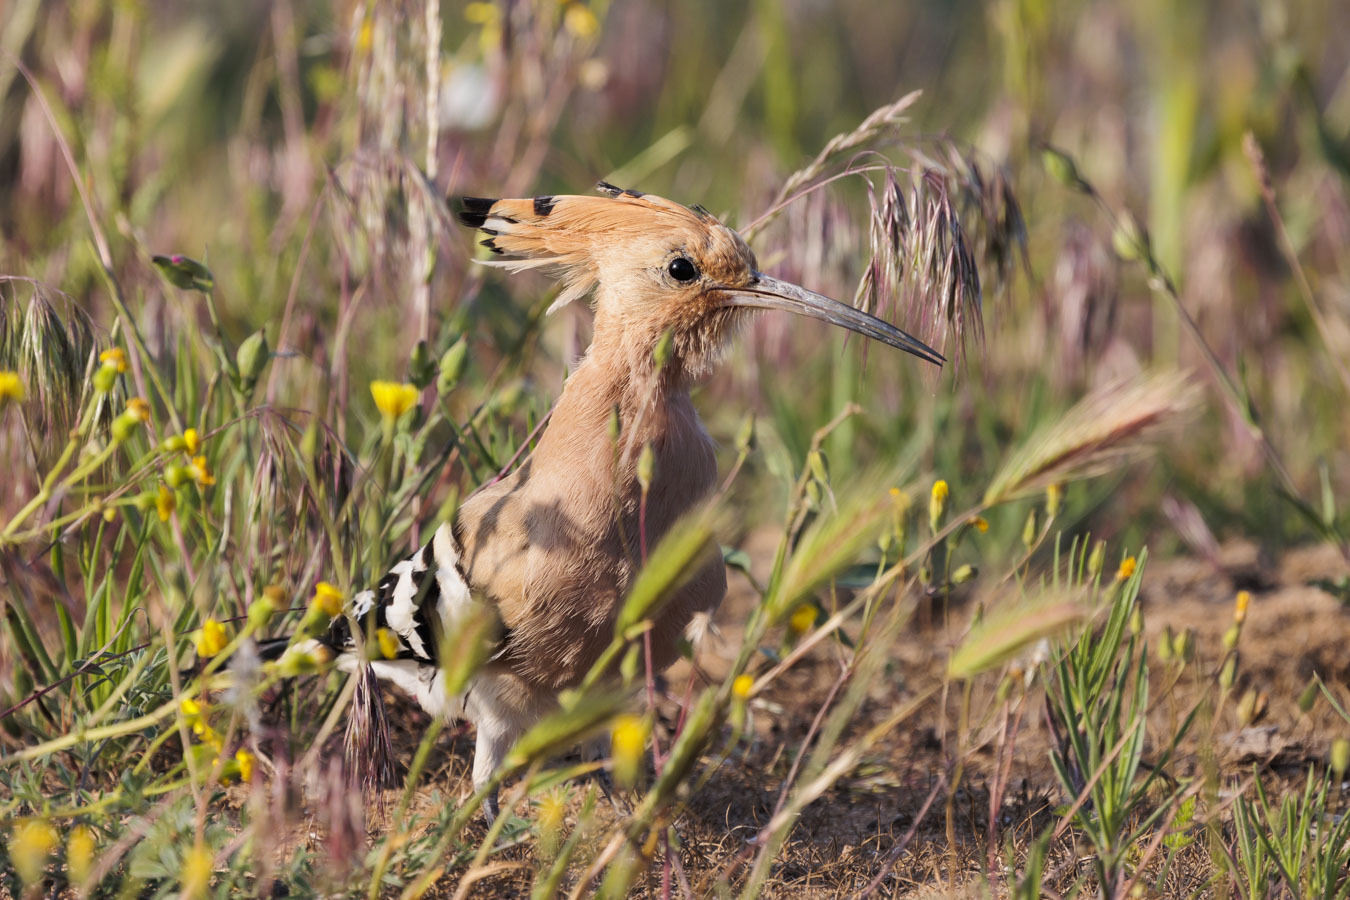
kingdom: Animalia
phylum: Chordata
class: Aves
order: Bucerotiformes
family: Upupidae
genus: Upupa
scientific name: Upupa epops
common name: Eurasian hoopoe
